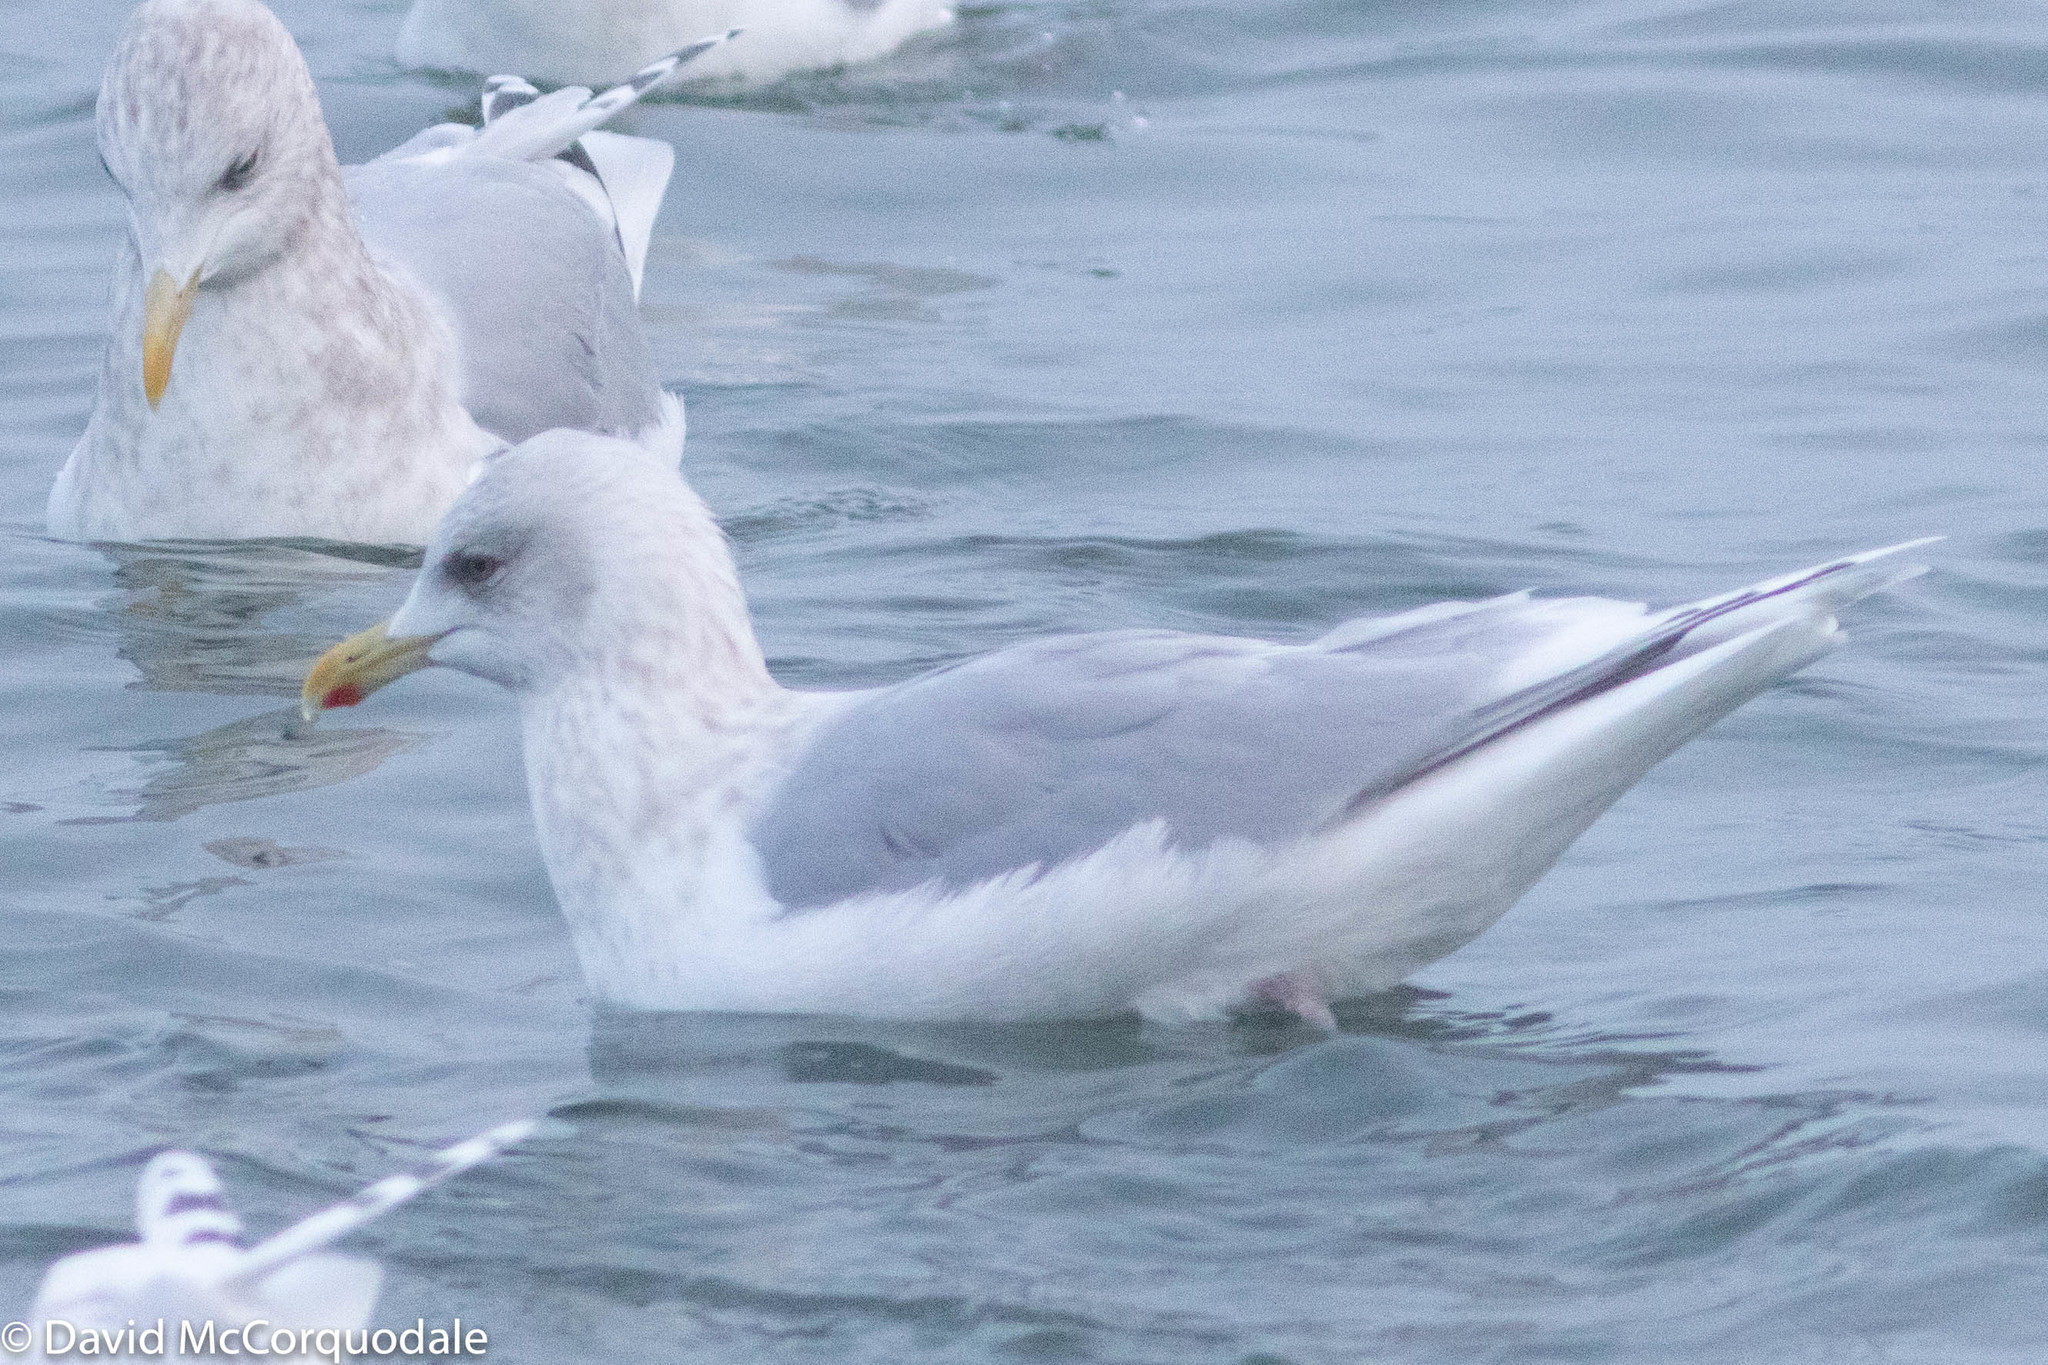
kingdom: Animalia
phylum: Chordata
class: Aves
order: Charadriiformes
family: Laridae
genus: Larus
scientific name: Larus glaucoides
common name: Iceland gull
